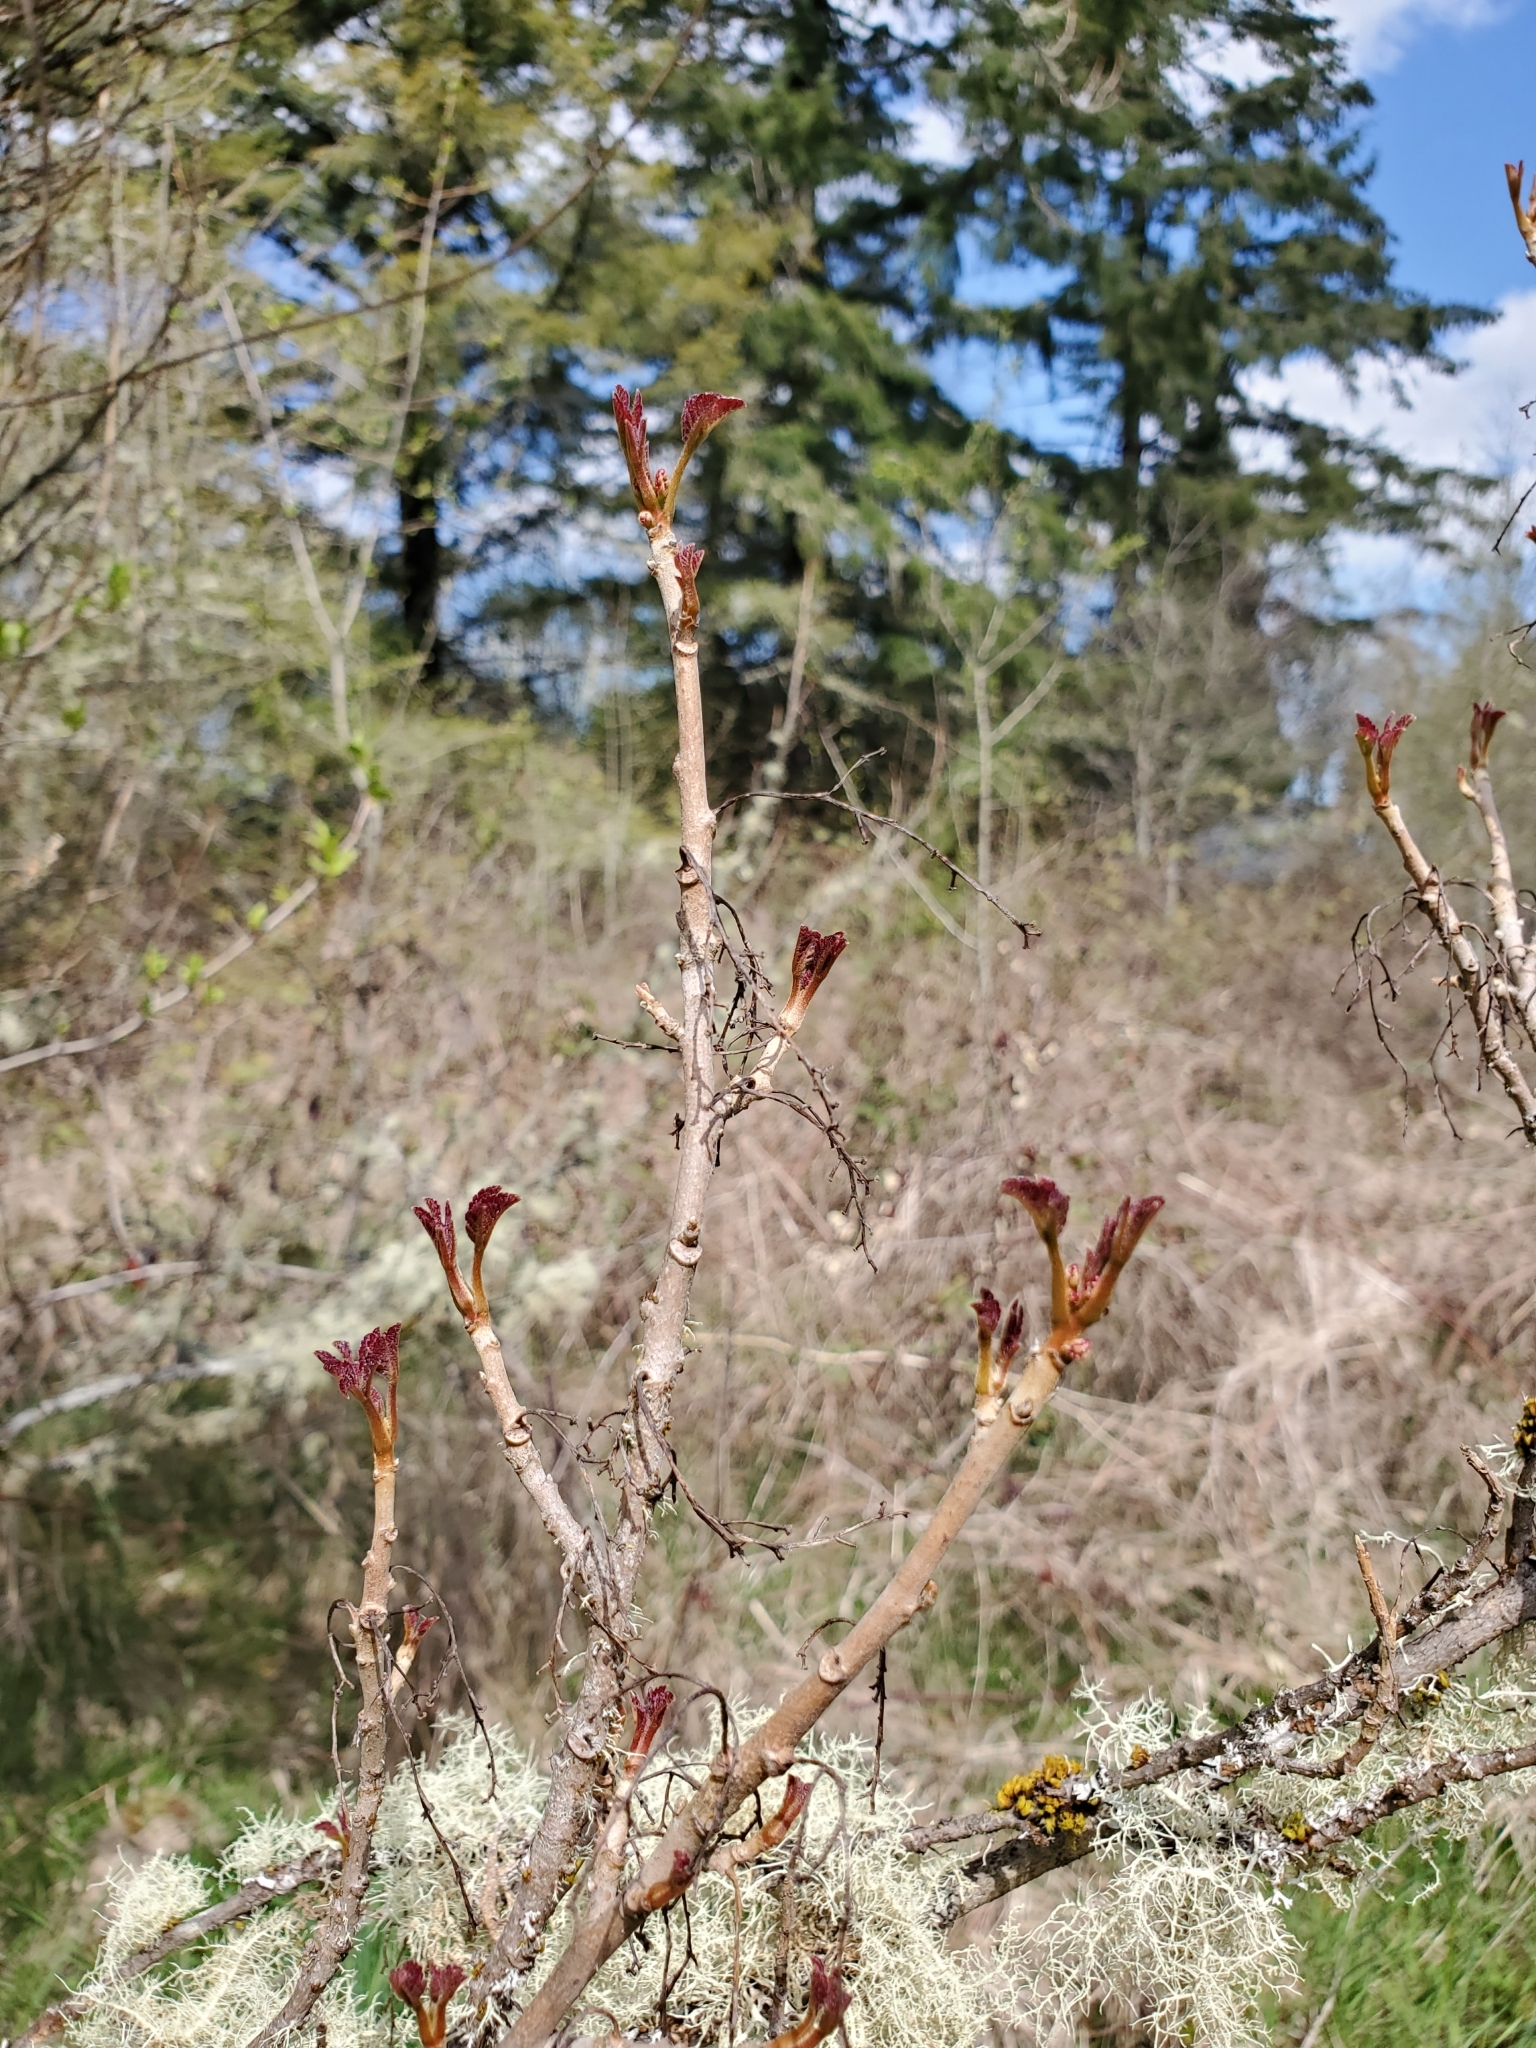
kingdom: Plantae
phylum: Tracheophyta
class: Magnoliopsida
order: Sapindales
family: Anacardiaceae
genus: Toxicodendron
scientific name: Toxicodendron diversilobum
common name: Pacific poison-oak
